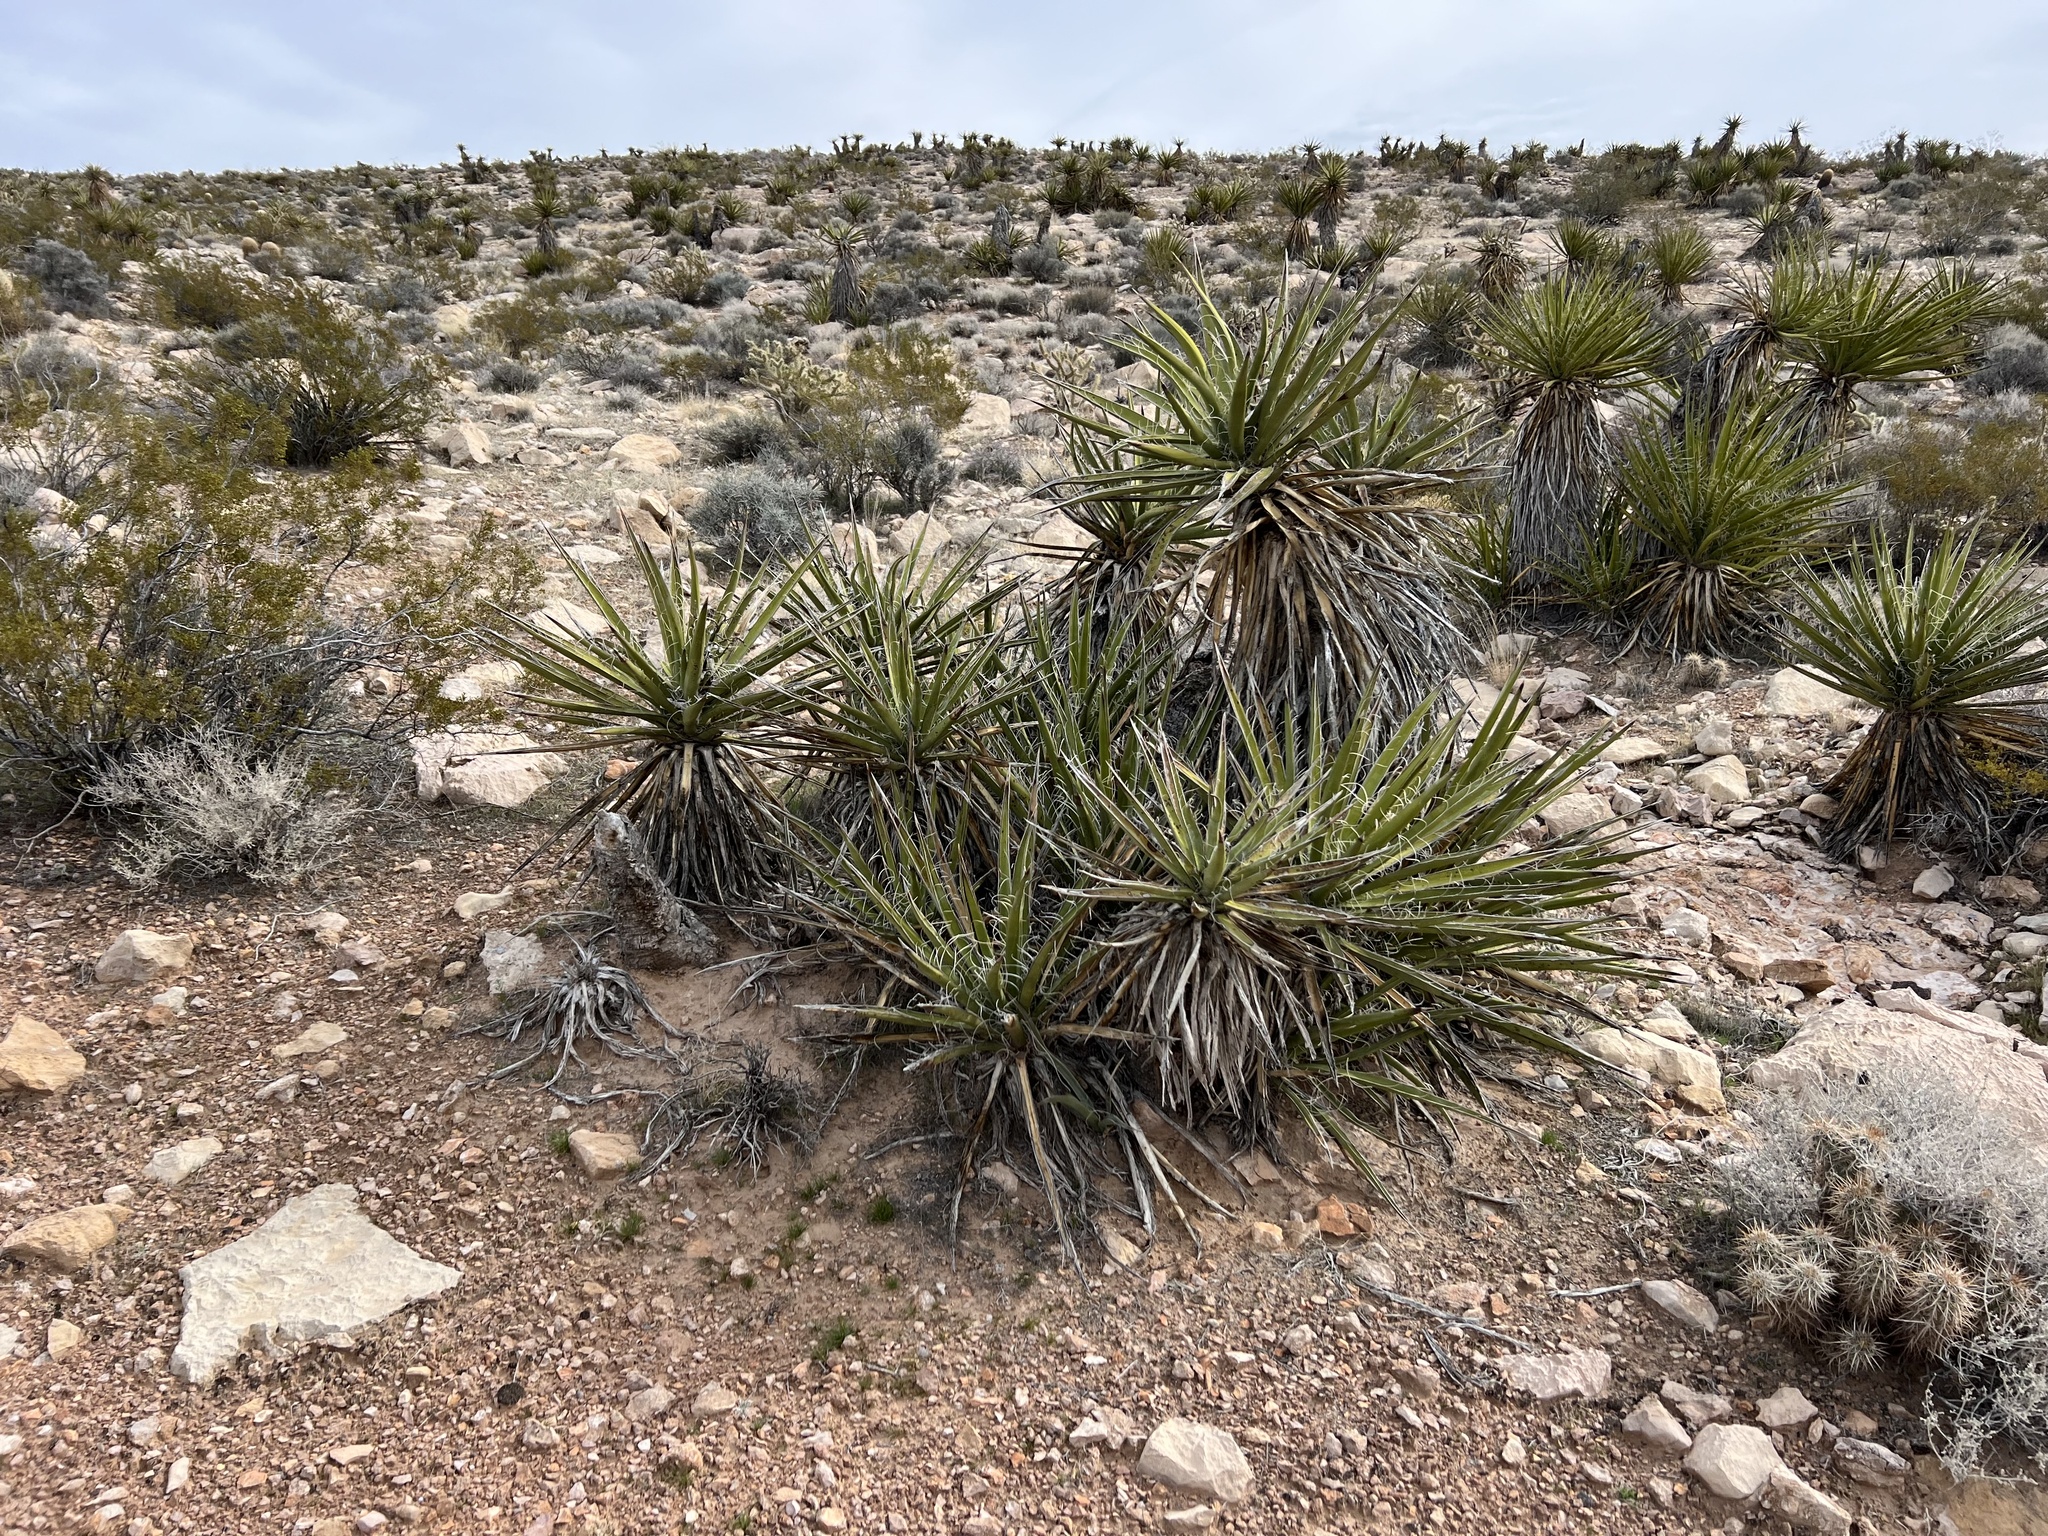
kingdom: Plantae
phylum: Tracheophyta
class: Liliopsida
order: Asparagales
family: Asparagaceae
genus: Yucca
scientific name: Yucca schidigera
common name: Mojave yucca
